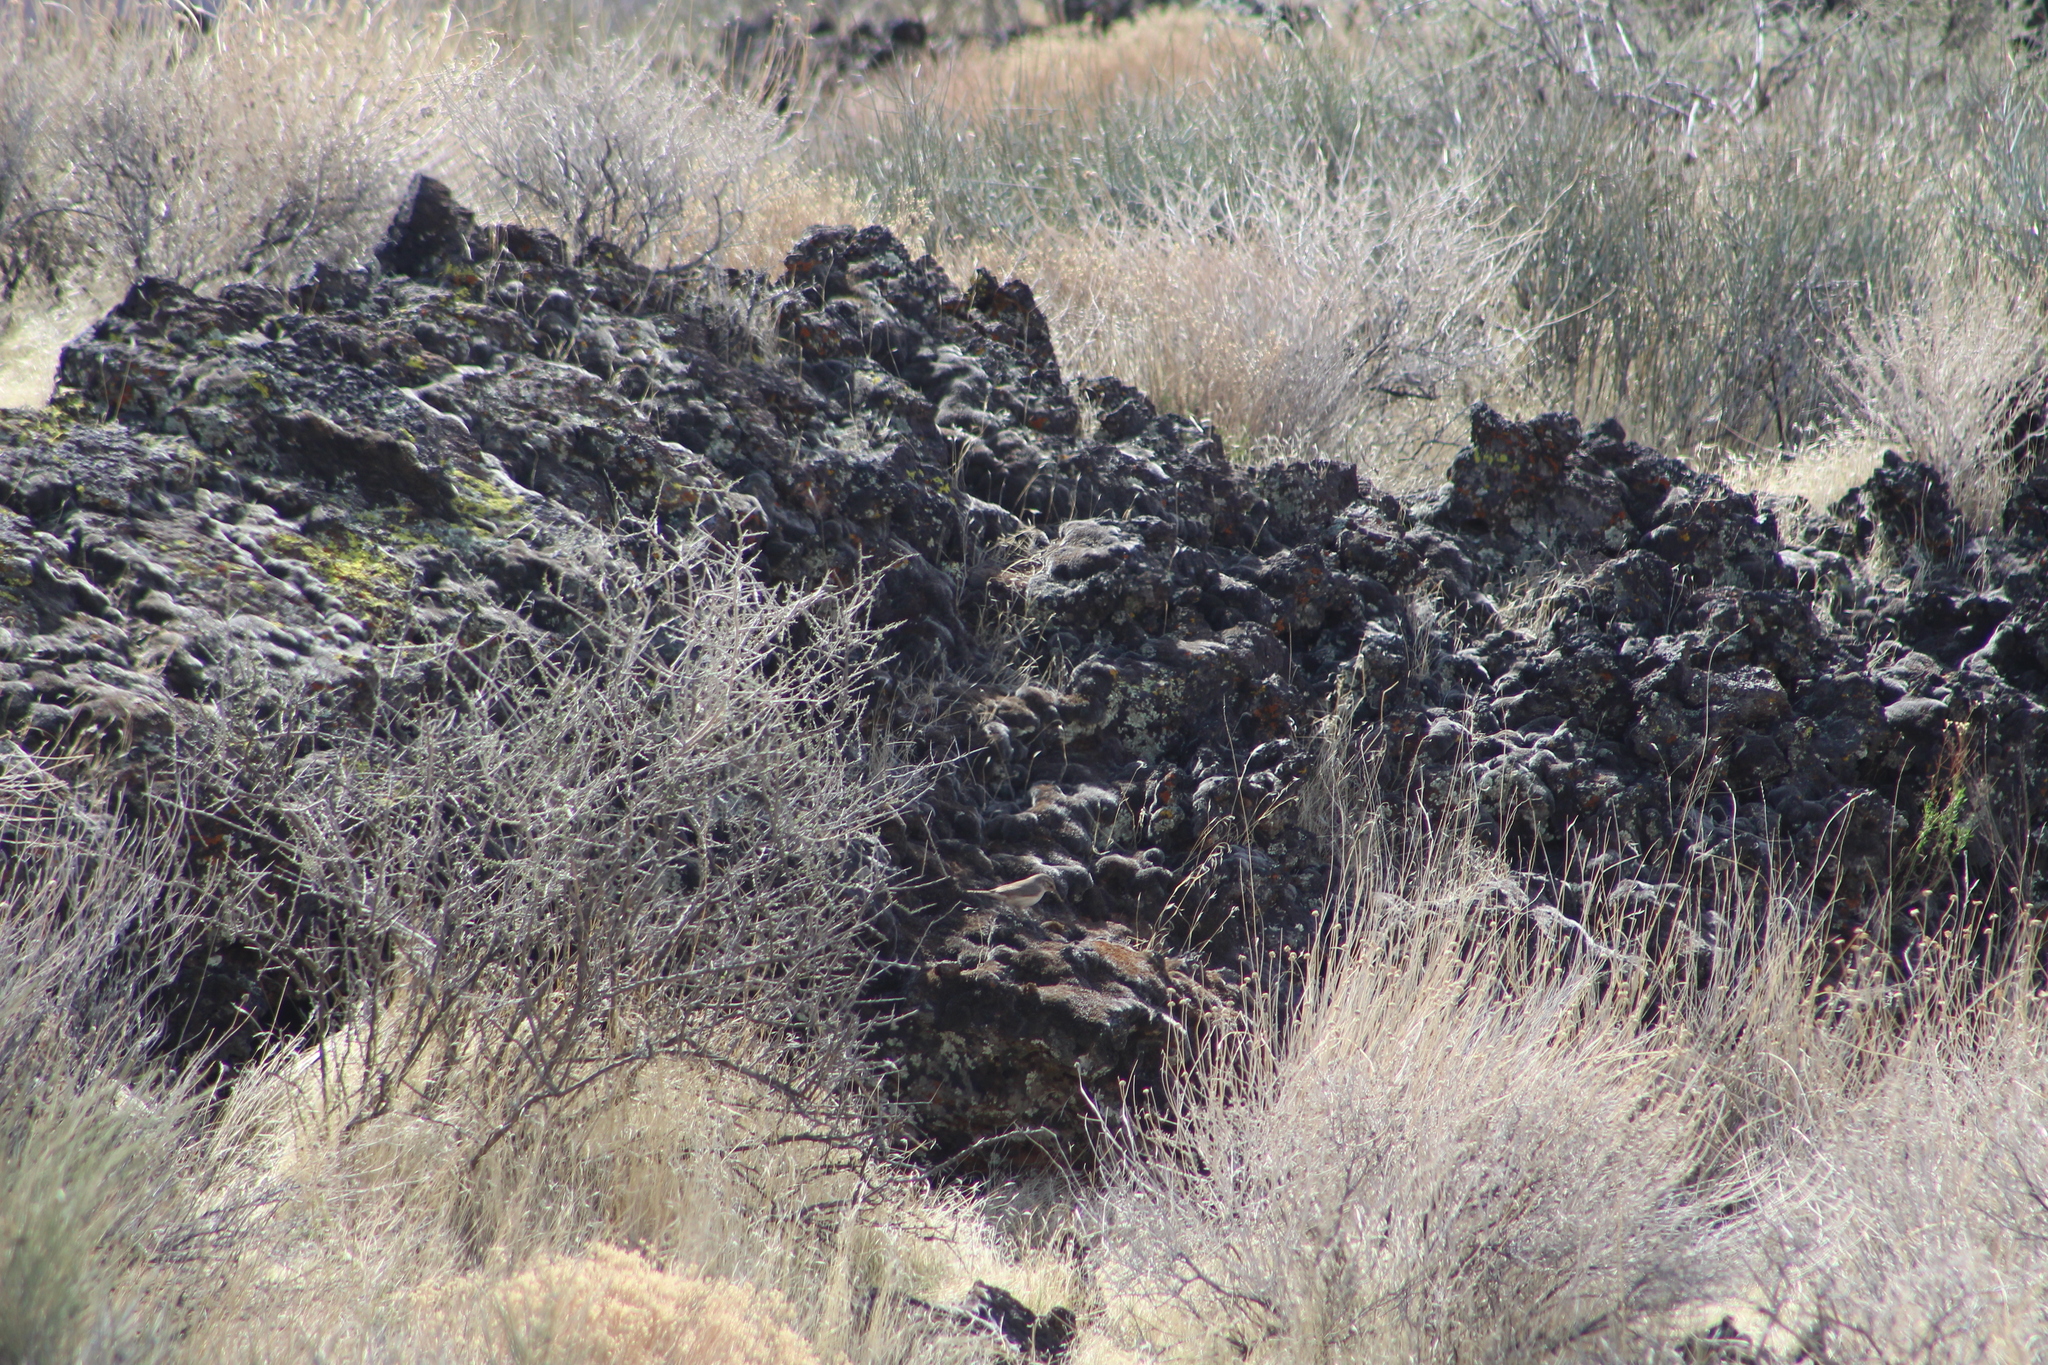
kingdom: Animalia
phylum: Chordata
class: Aves
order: Passeriformes
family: Troglodytidae
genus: Salpinctes
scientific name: Salpinctes obsoletus
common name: Rock wren
